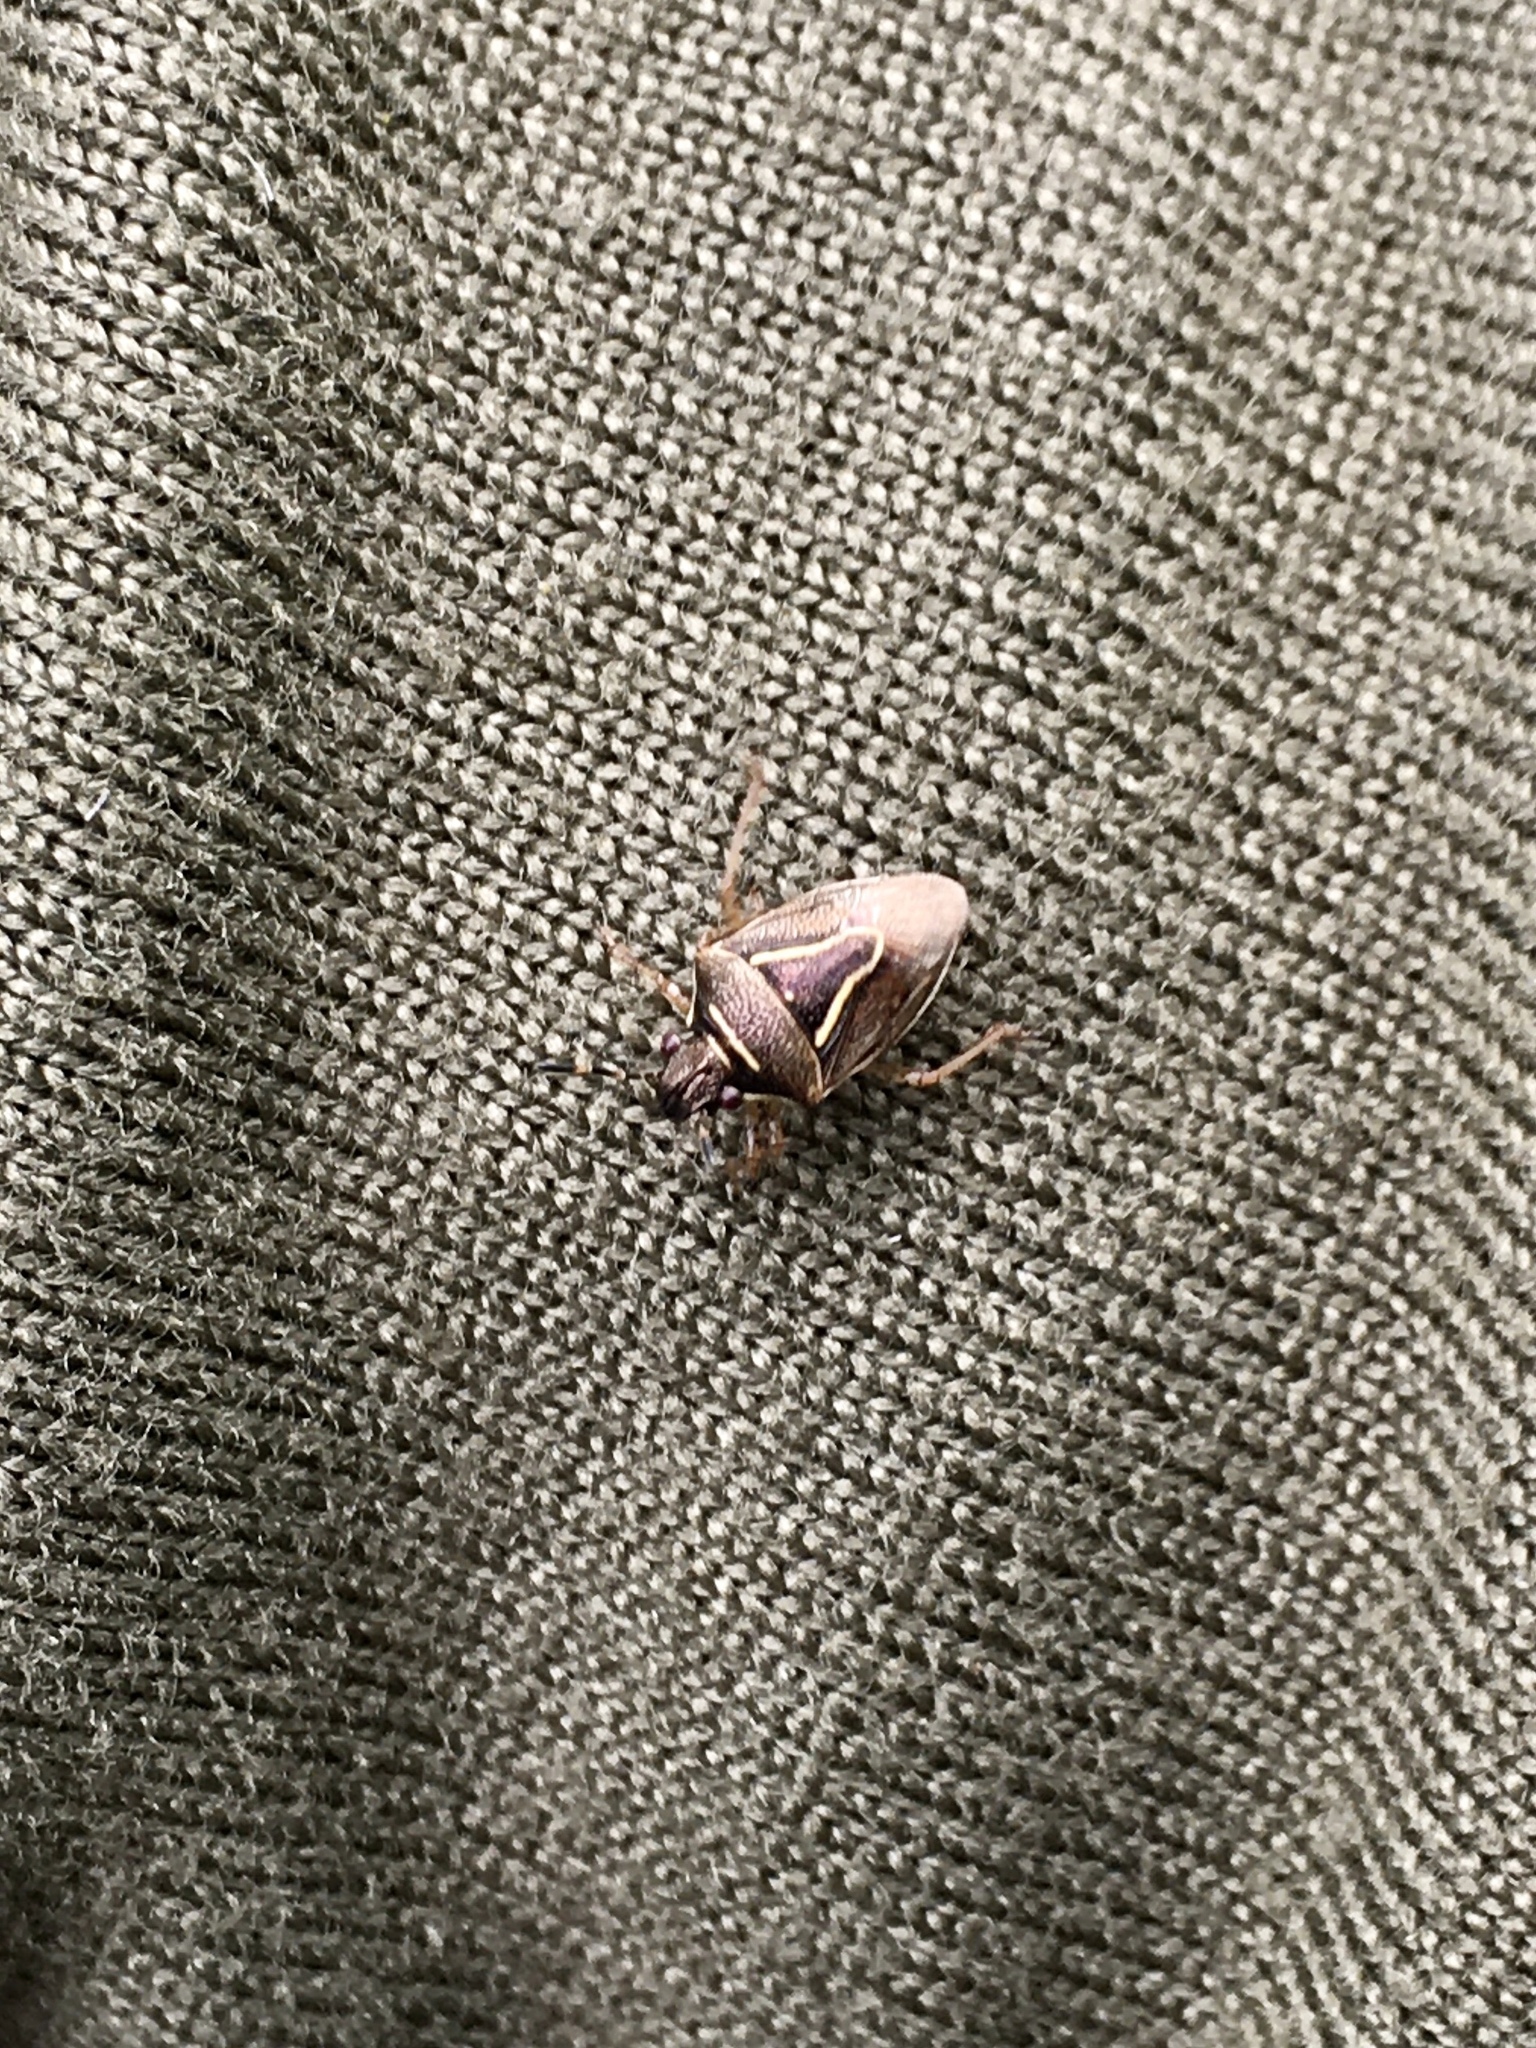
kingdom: Animalia
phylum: Arthropoda
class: Insecta
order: Hemiptera
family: Pentatomidae
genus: Mormidea
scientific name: Mormidea lugens
